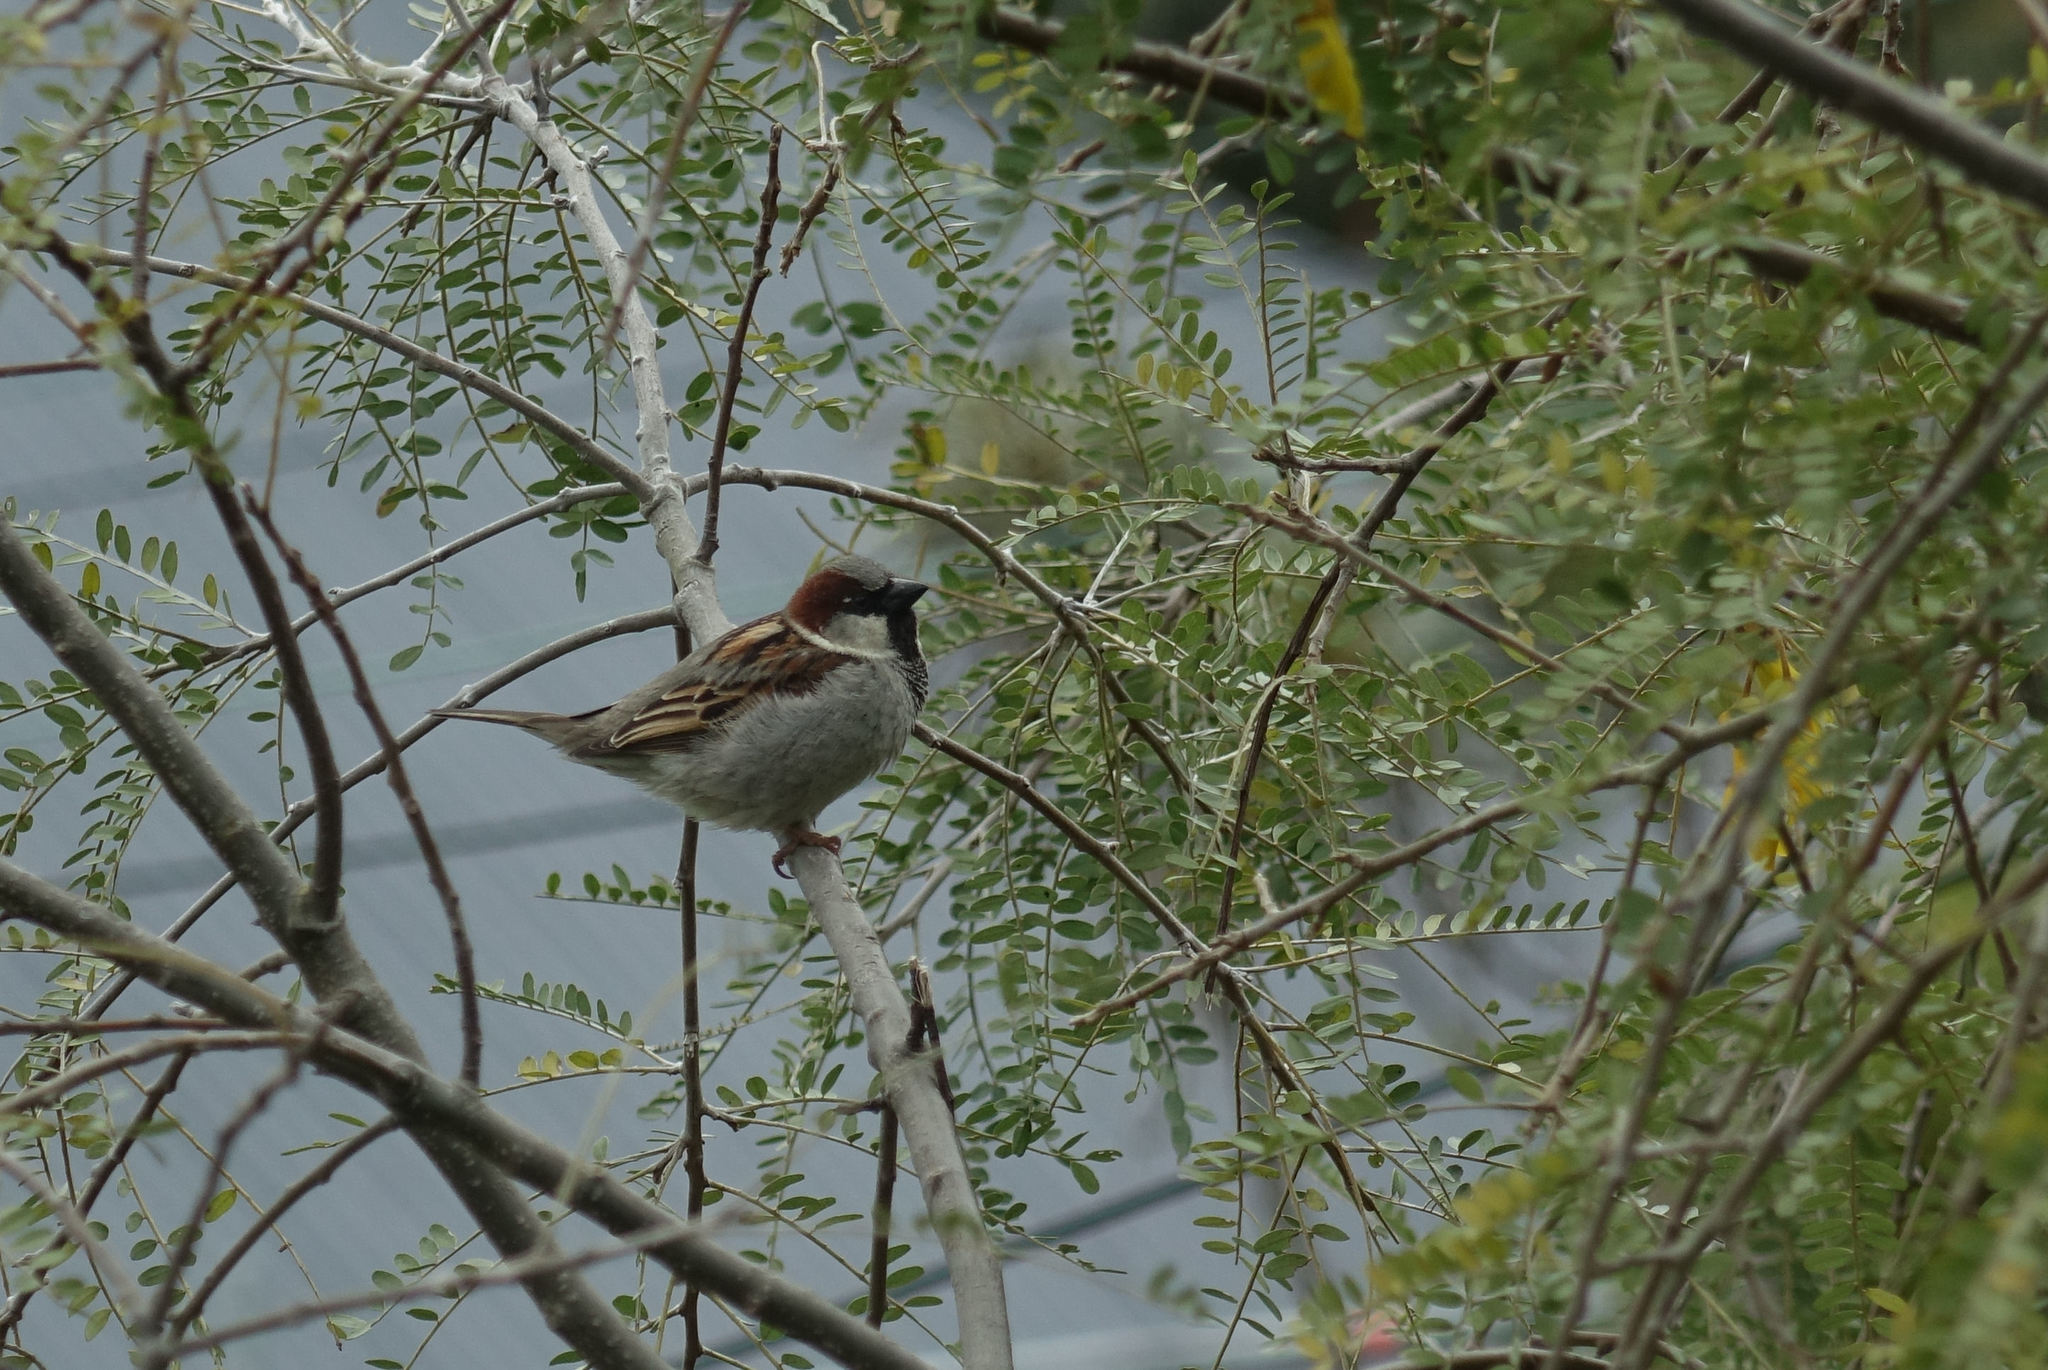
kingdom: Animalia
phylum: Chordata
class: Aves
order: Passeriformes
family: Passeridae
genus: Passer
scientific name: Passer domesticus
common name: House sparrow
